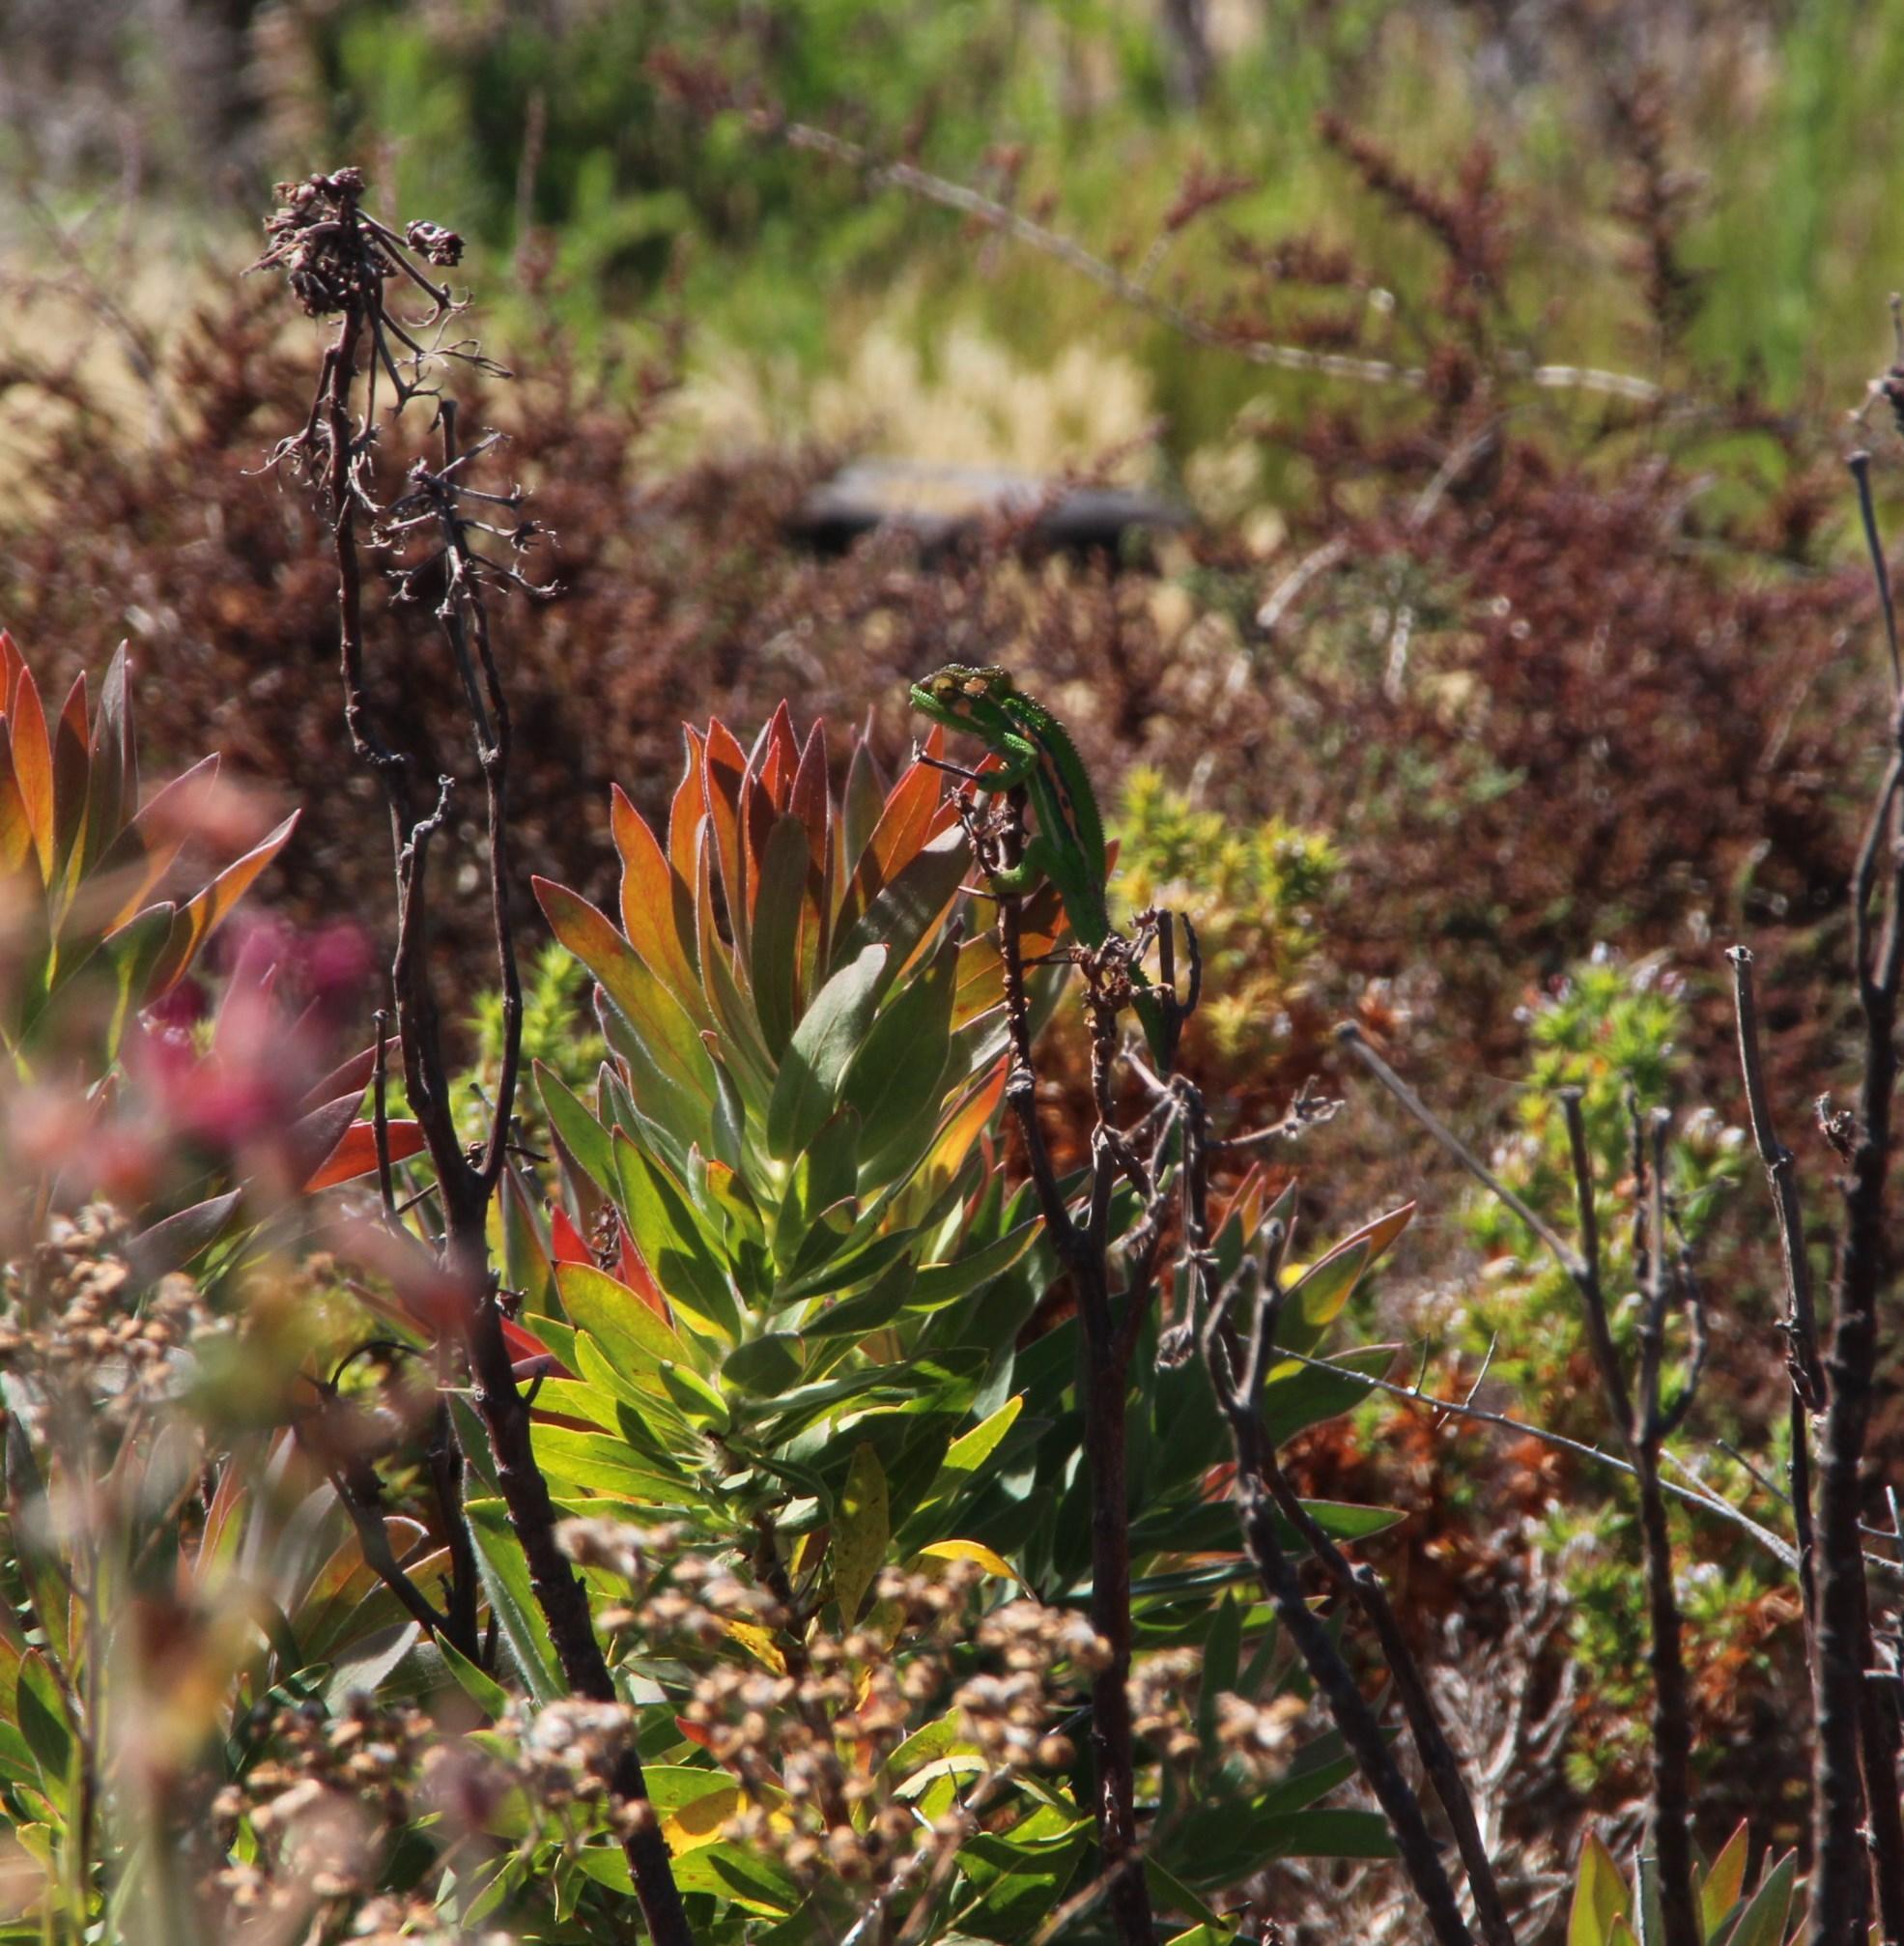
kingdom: Animalia
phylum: Chordata
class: Squamata
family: Chamaeleonidae
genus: Bradypodion
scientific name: Bradypodion pumilum
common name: Cape dwarf chameleon
